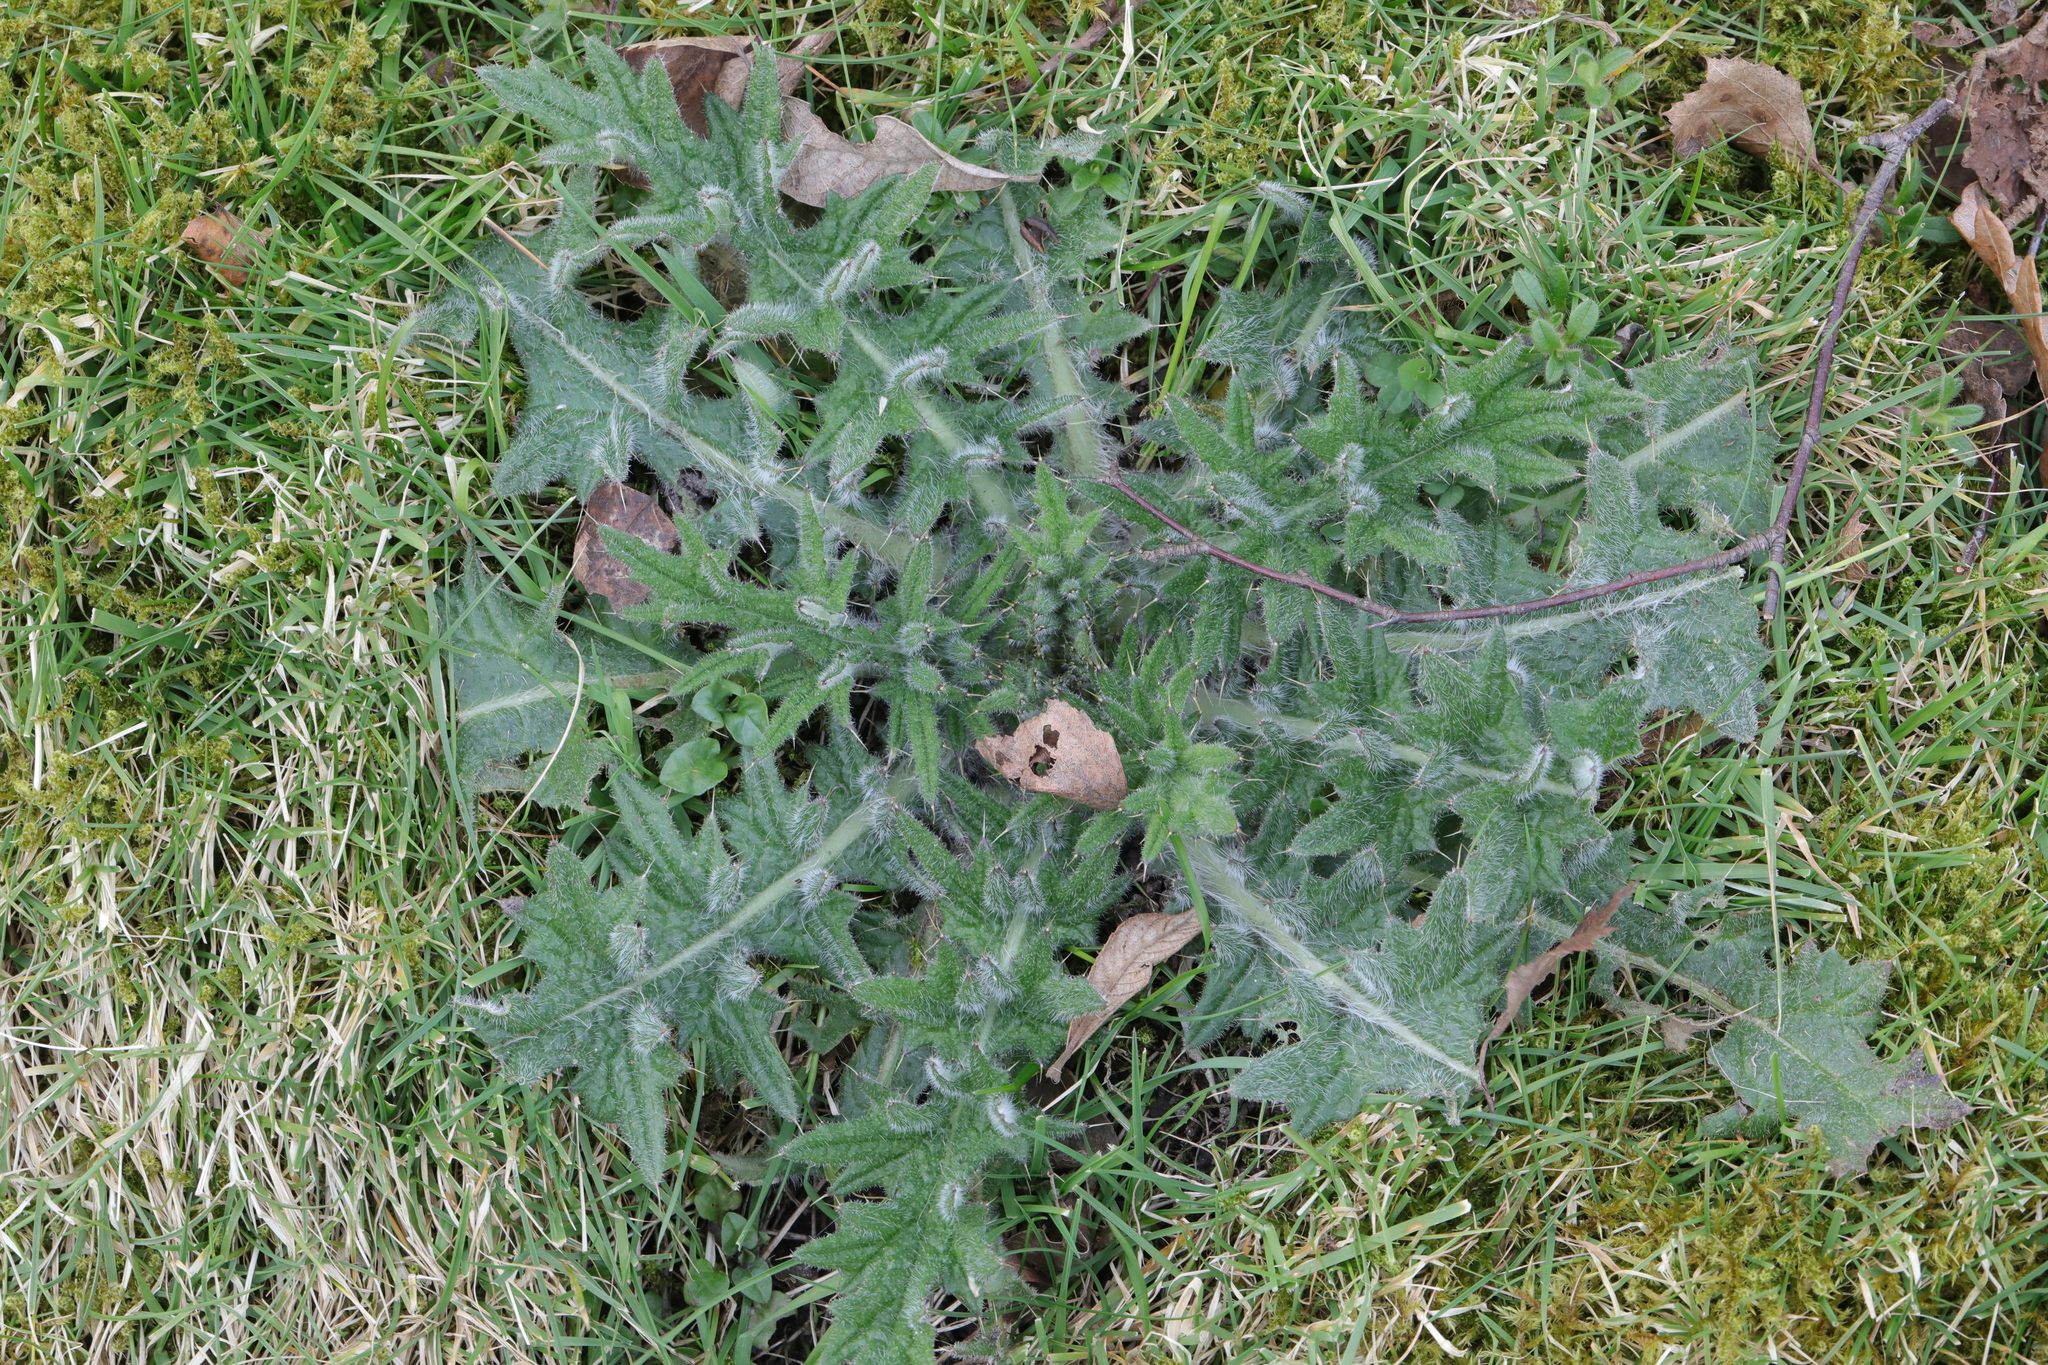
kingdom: Plantae
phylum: Tracheophyta
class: Magnoliopsida
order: Asterales
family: Asteraceae
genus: Cirsium
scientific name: Cirsium vulgare
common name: Bull thistle
